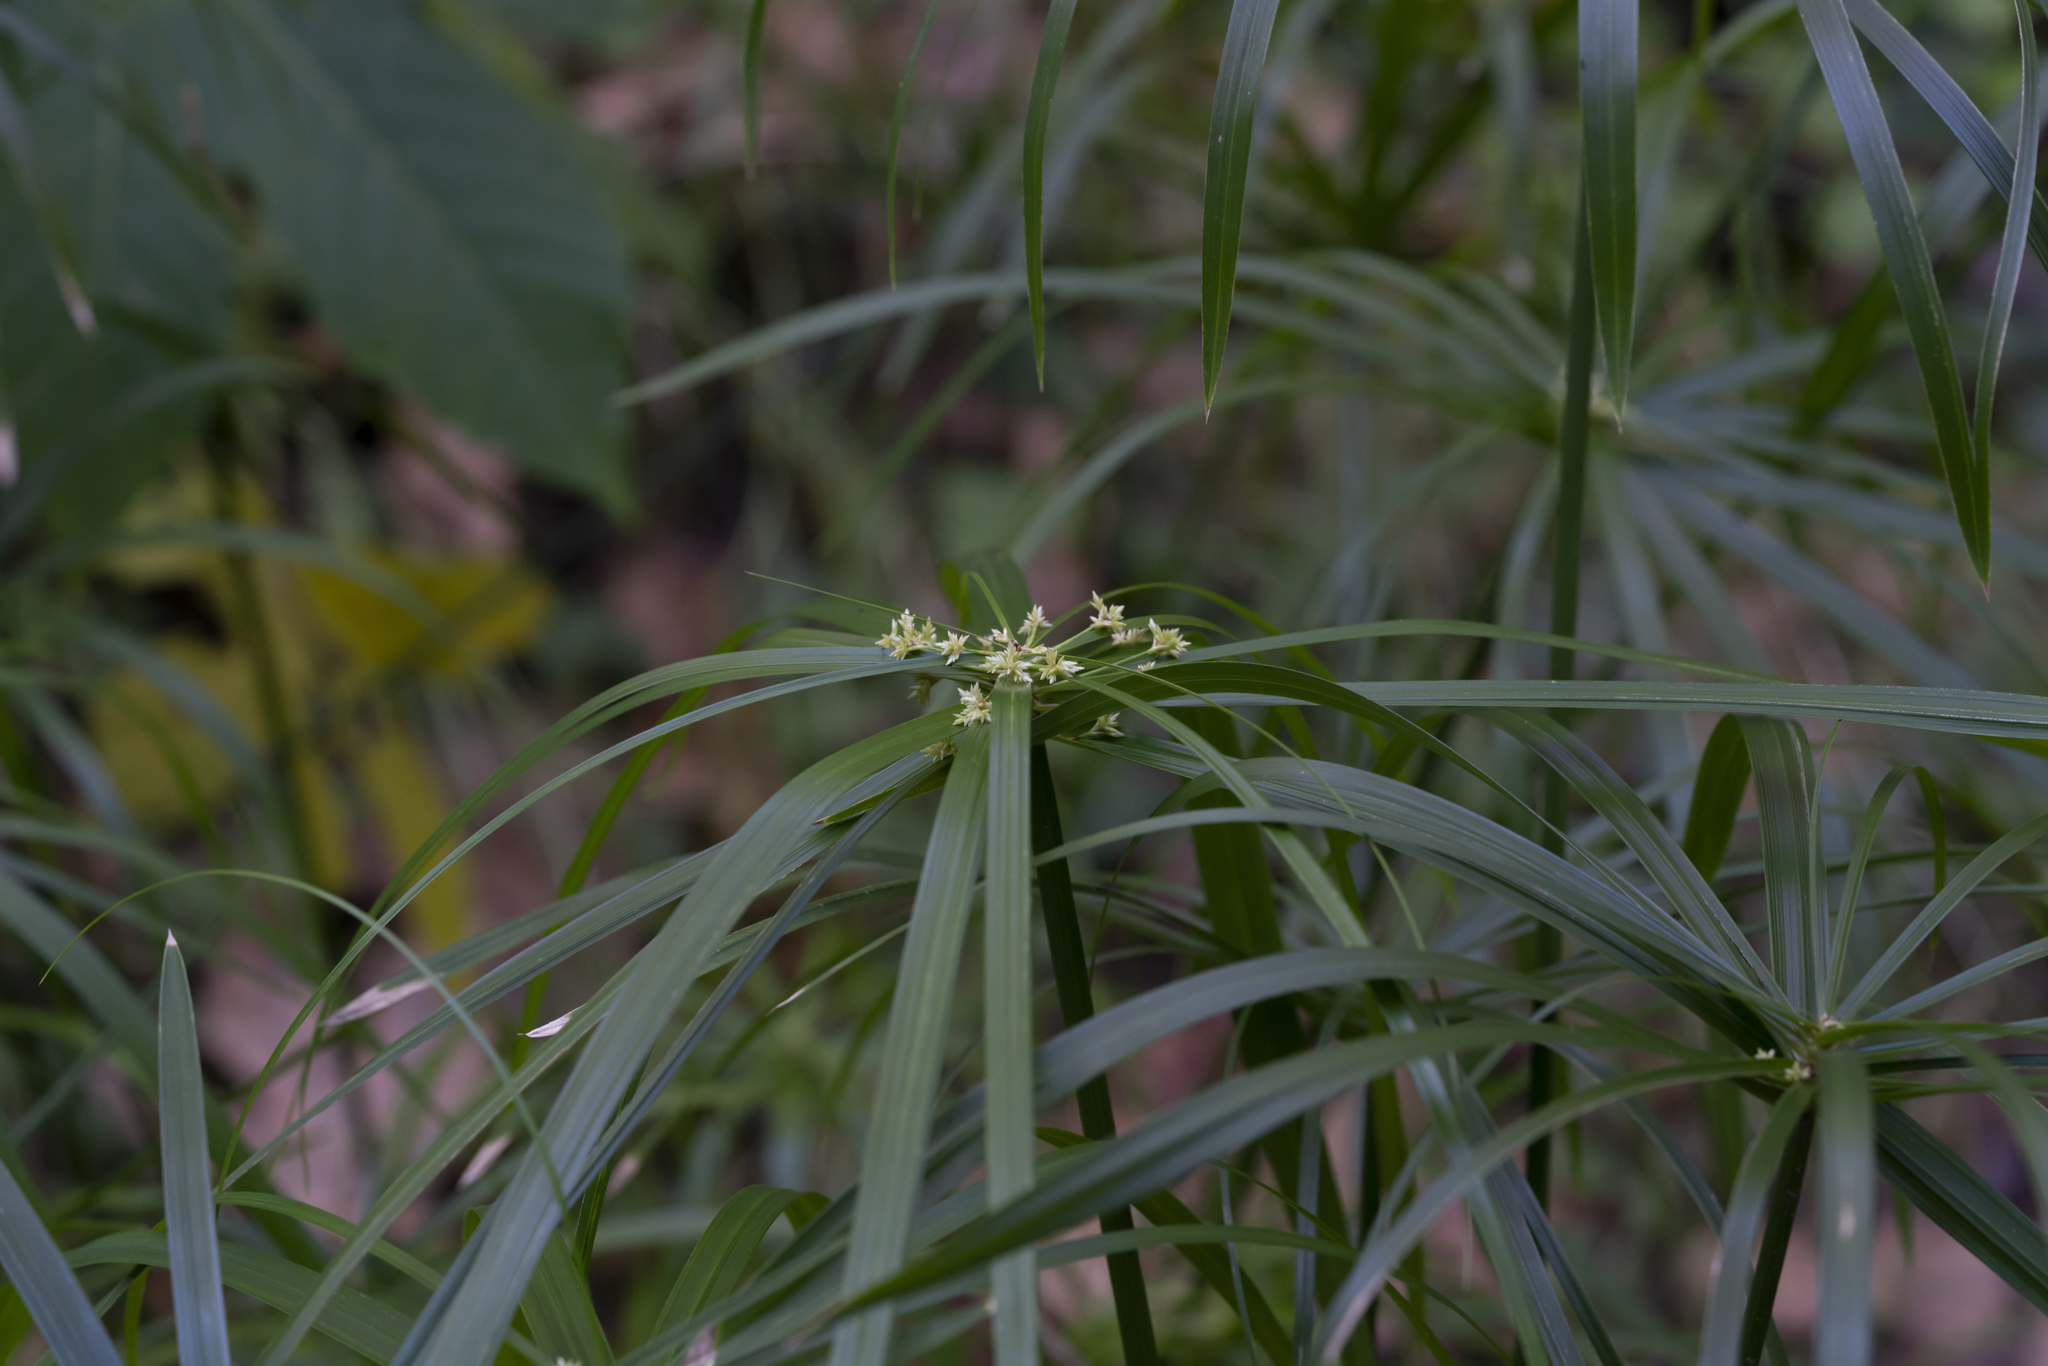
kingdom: Plantae
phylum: Tracheophyta
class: Liliopsida
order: Poales
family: Cyperaceae
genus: Cyperus
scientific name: Cyperus alternifolius
